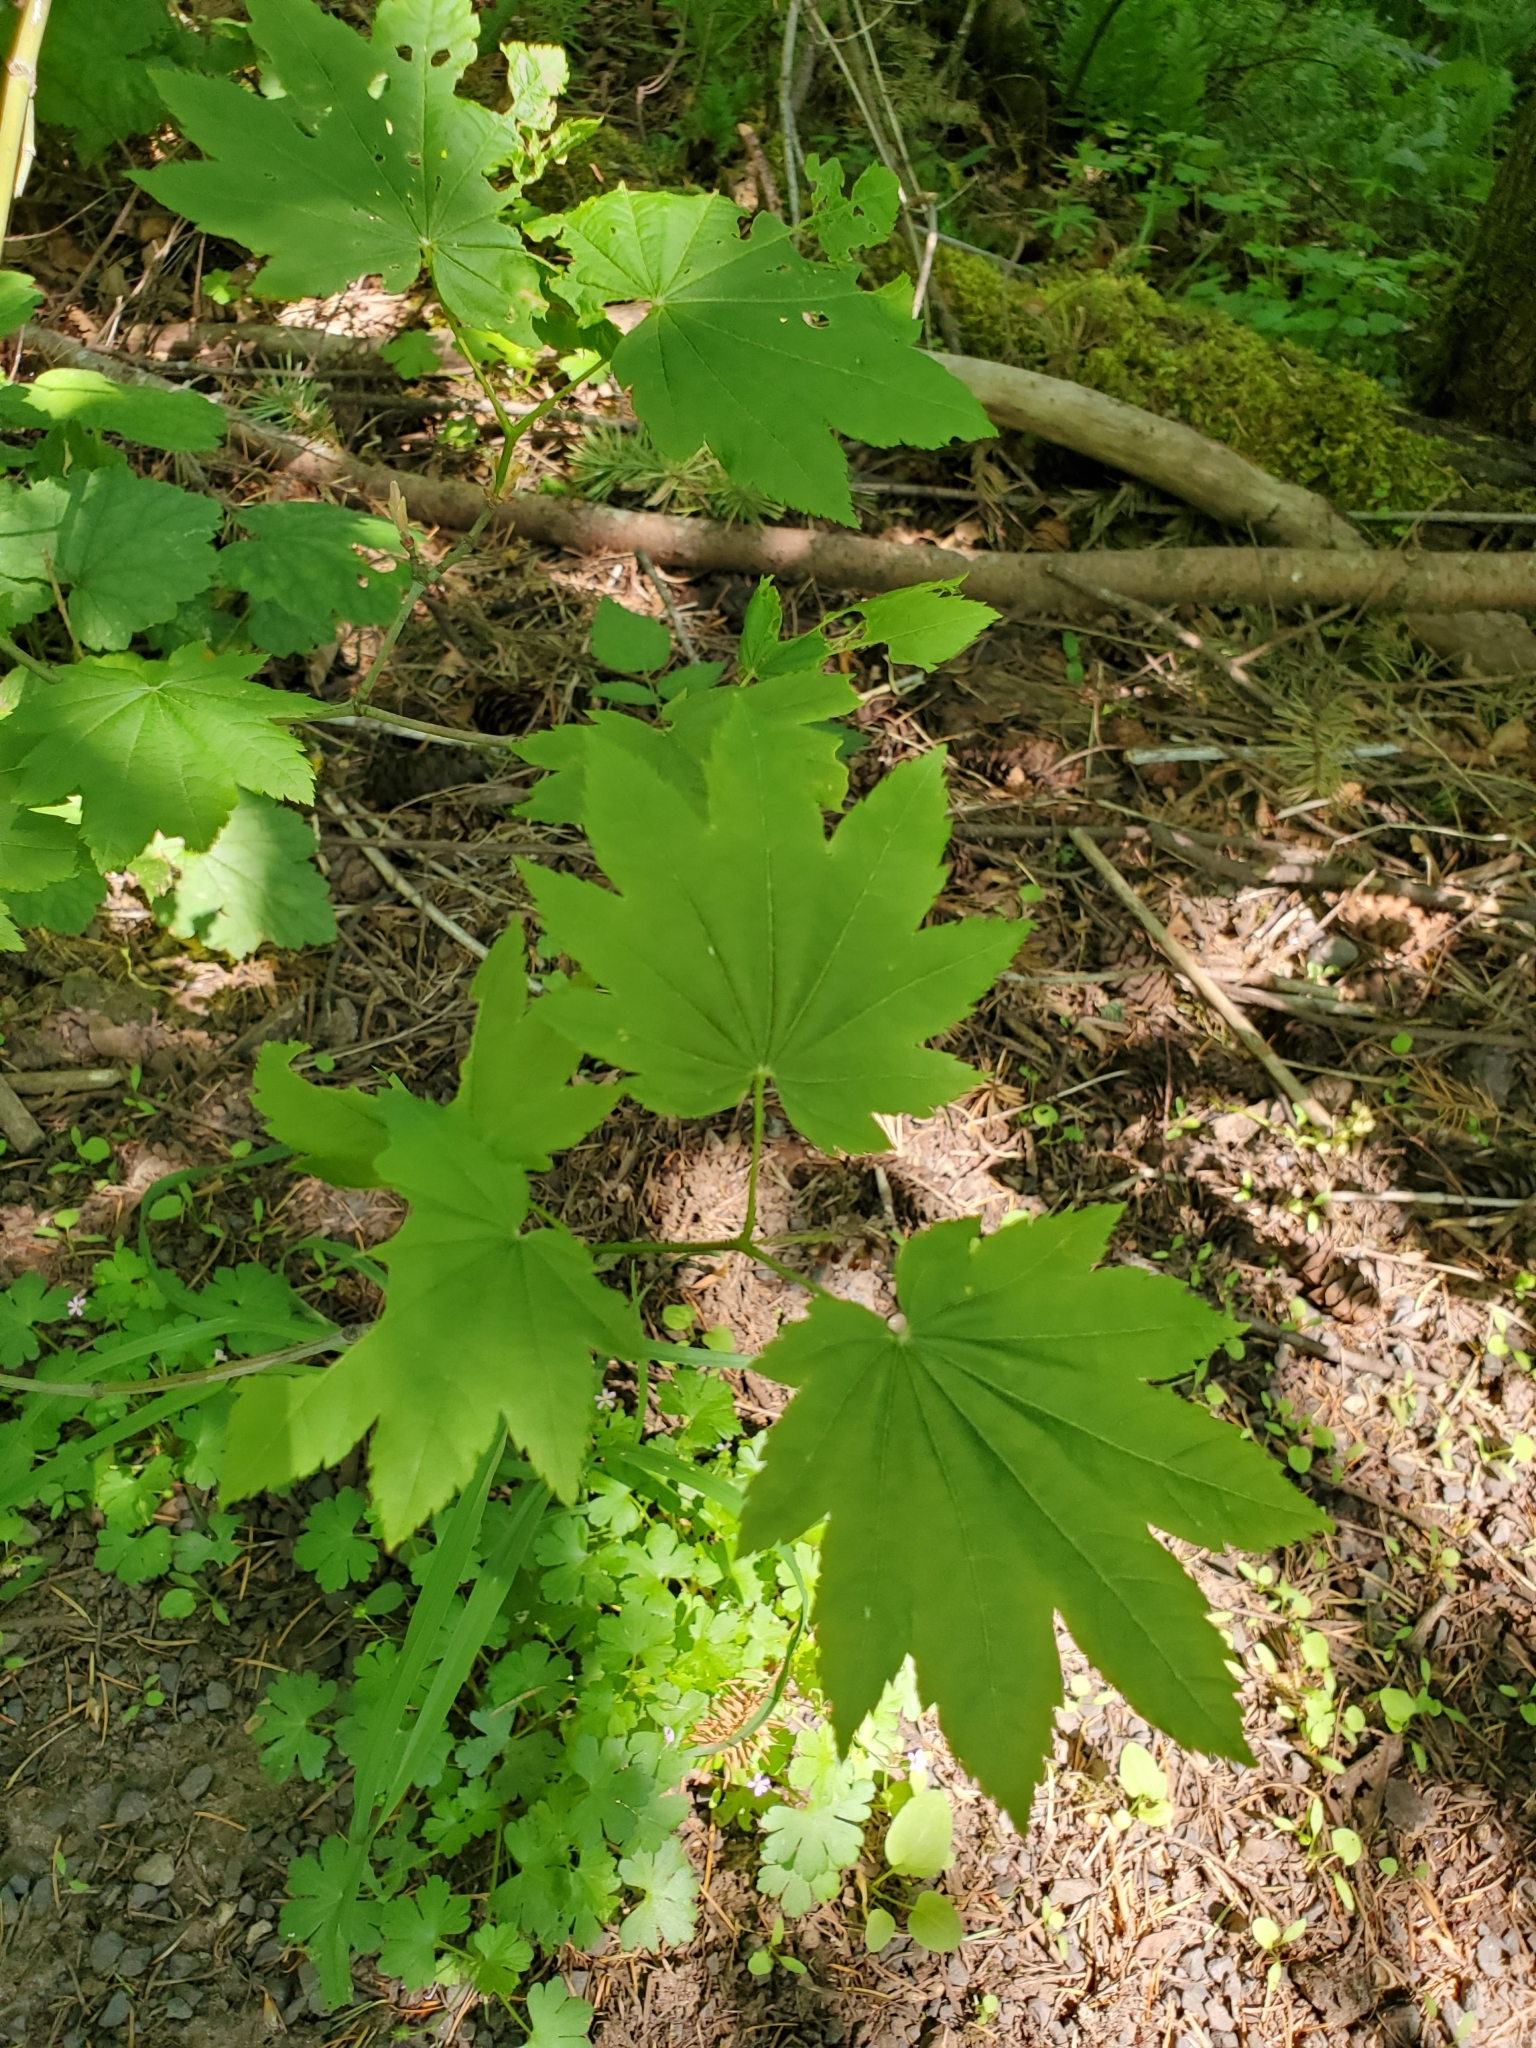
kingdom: Plantae
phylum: Tracheophyta
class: Magnoliopsida
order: Sapindales
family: Sapindaceae
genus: Acer
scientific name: Acer circinatum
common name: Vine maple
